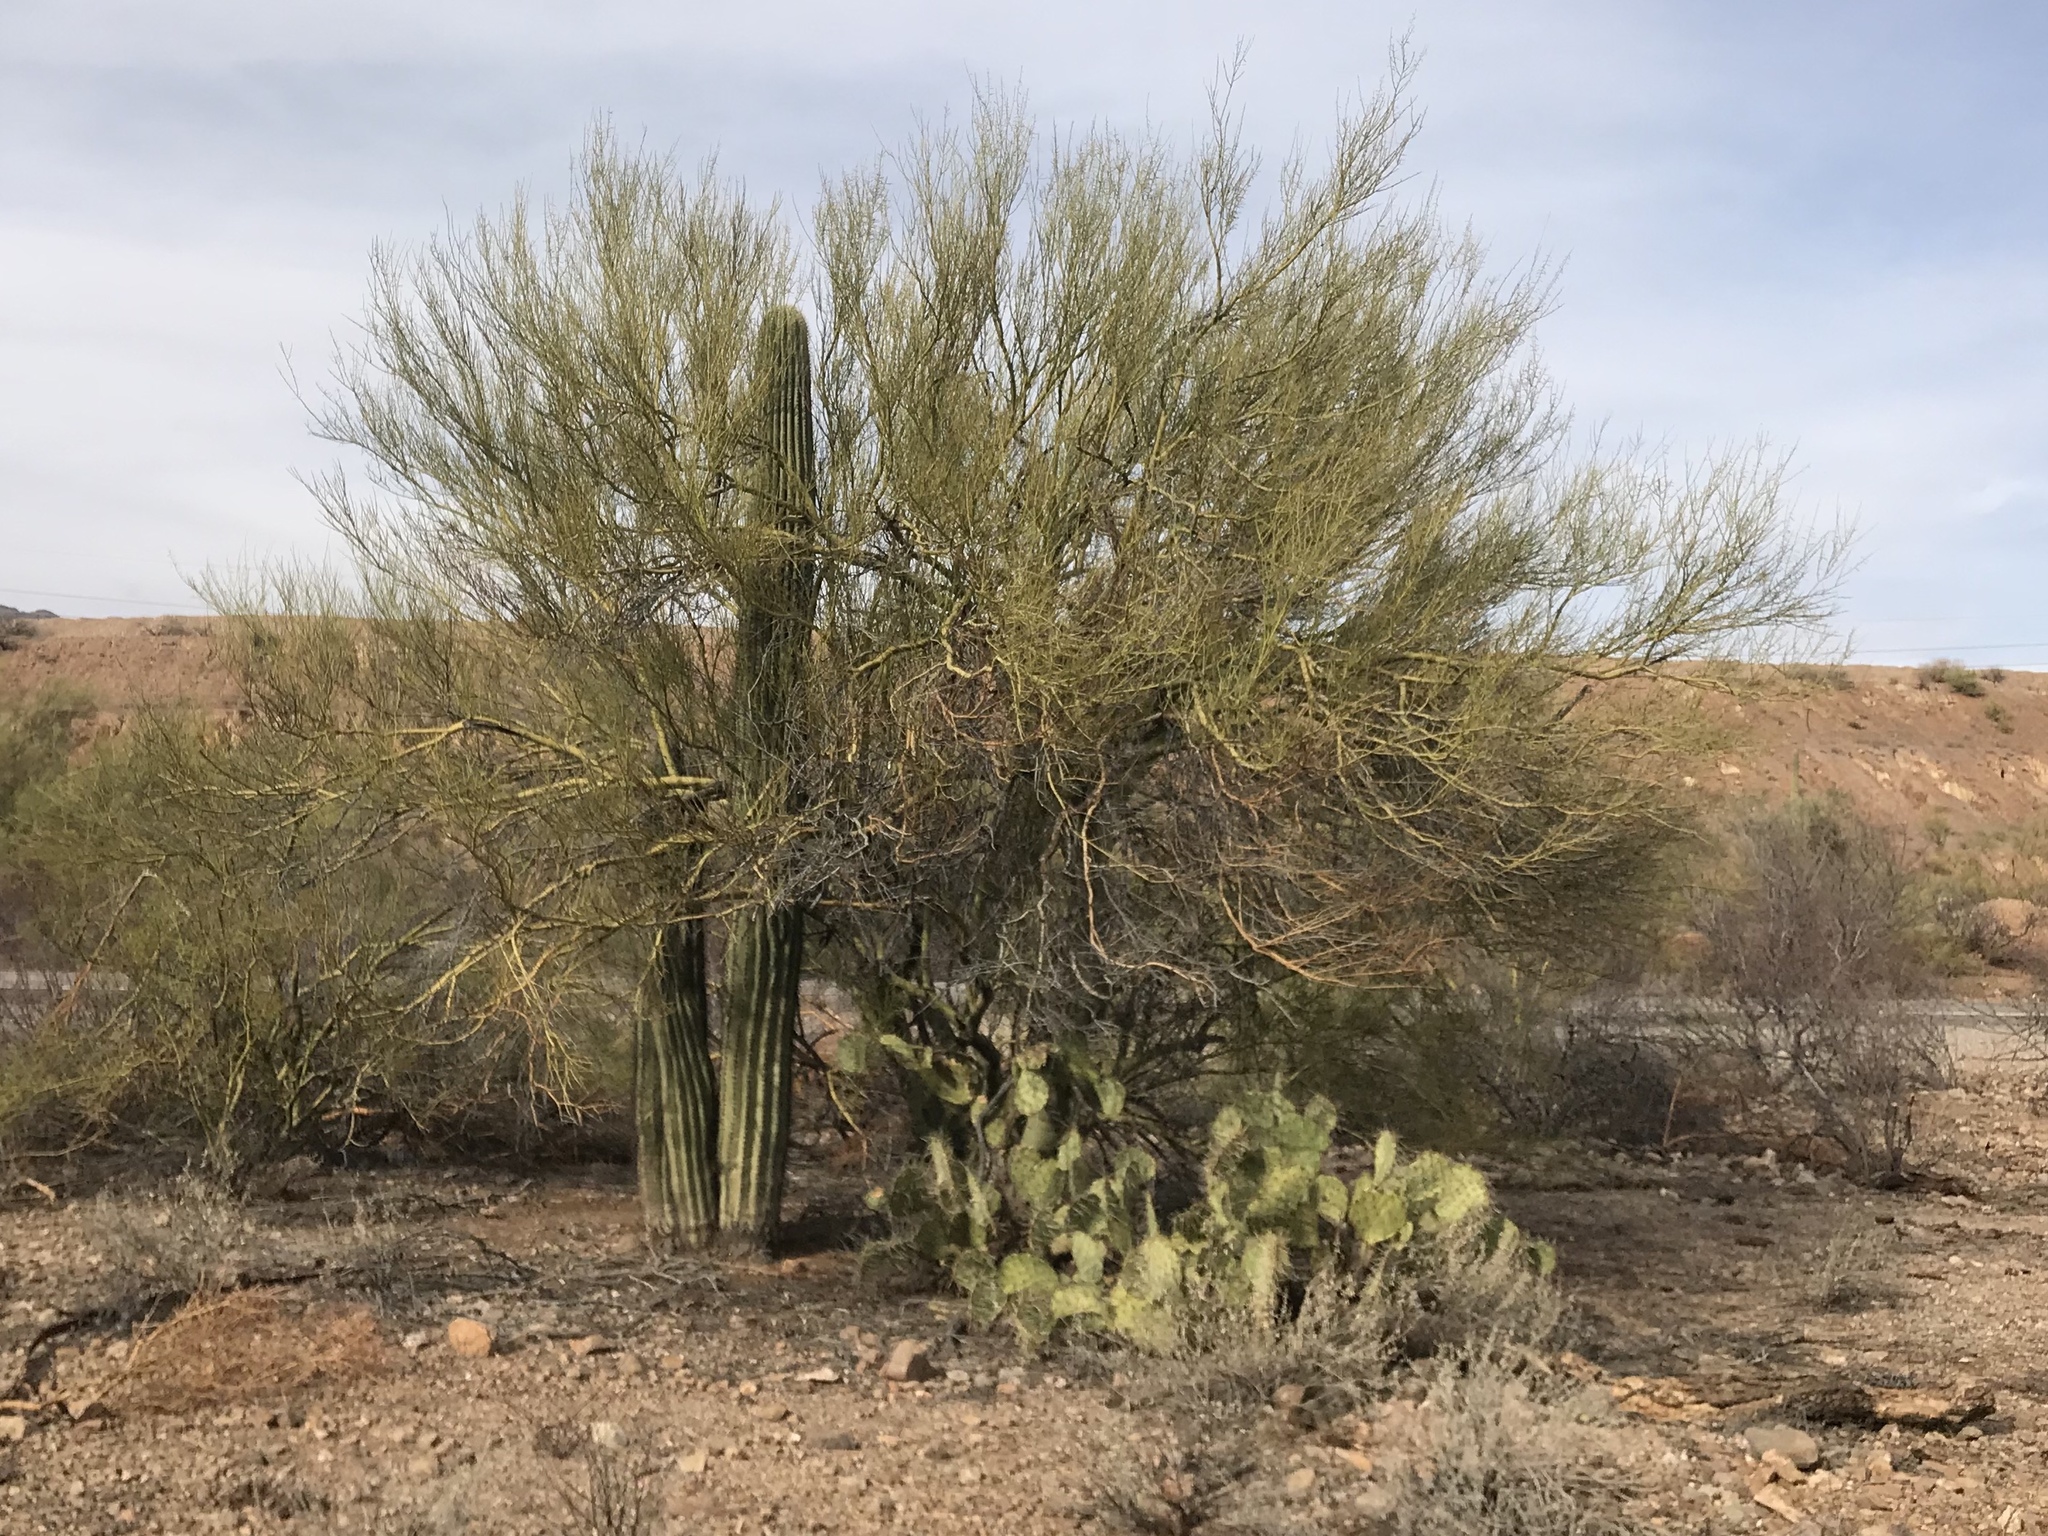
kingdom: Plantae
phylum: Tracheophyta
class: Magnoliopsida
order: Fabales
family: Fabaceae
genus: Parkinsonia
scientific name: Parkinsonia microphylla
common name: Yellow paloverde
